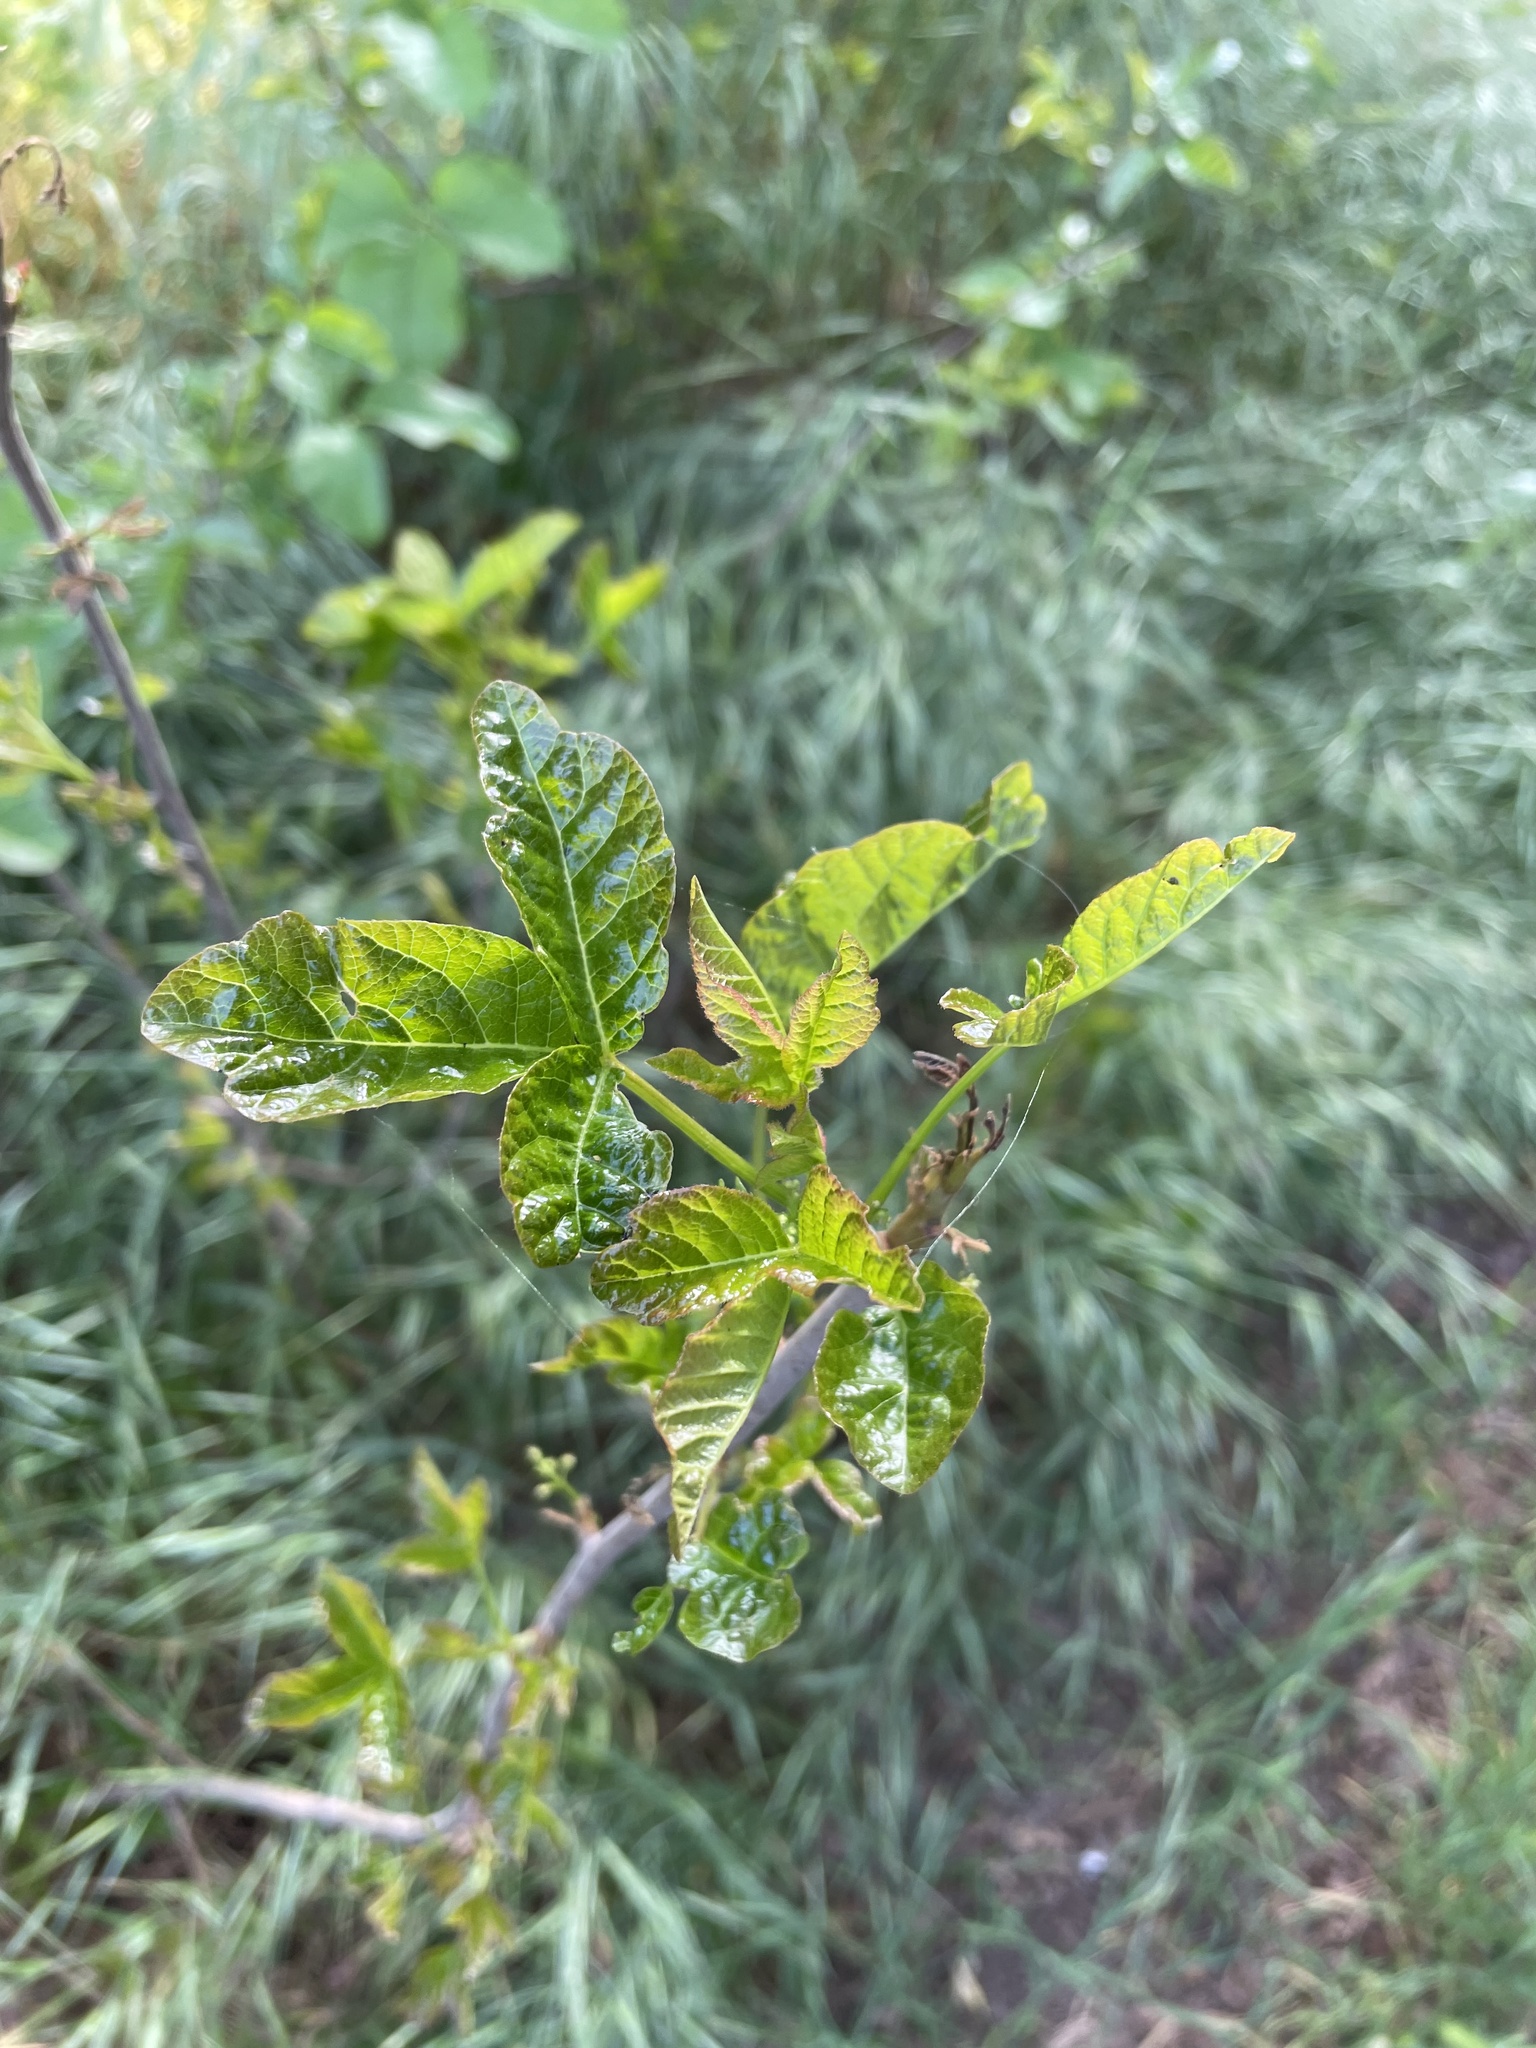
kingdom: Plantae
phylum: Tracheophyta
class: Magnoliopsida
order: Sapindales
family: Anacardiaceae
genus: Toxicodendron
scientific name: Toxicodendron diversilobum
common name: Pacific poison-oak
